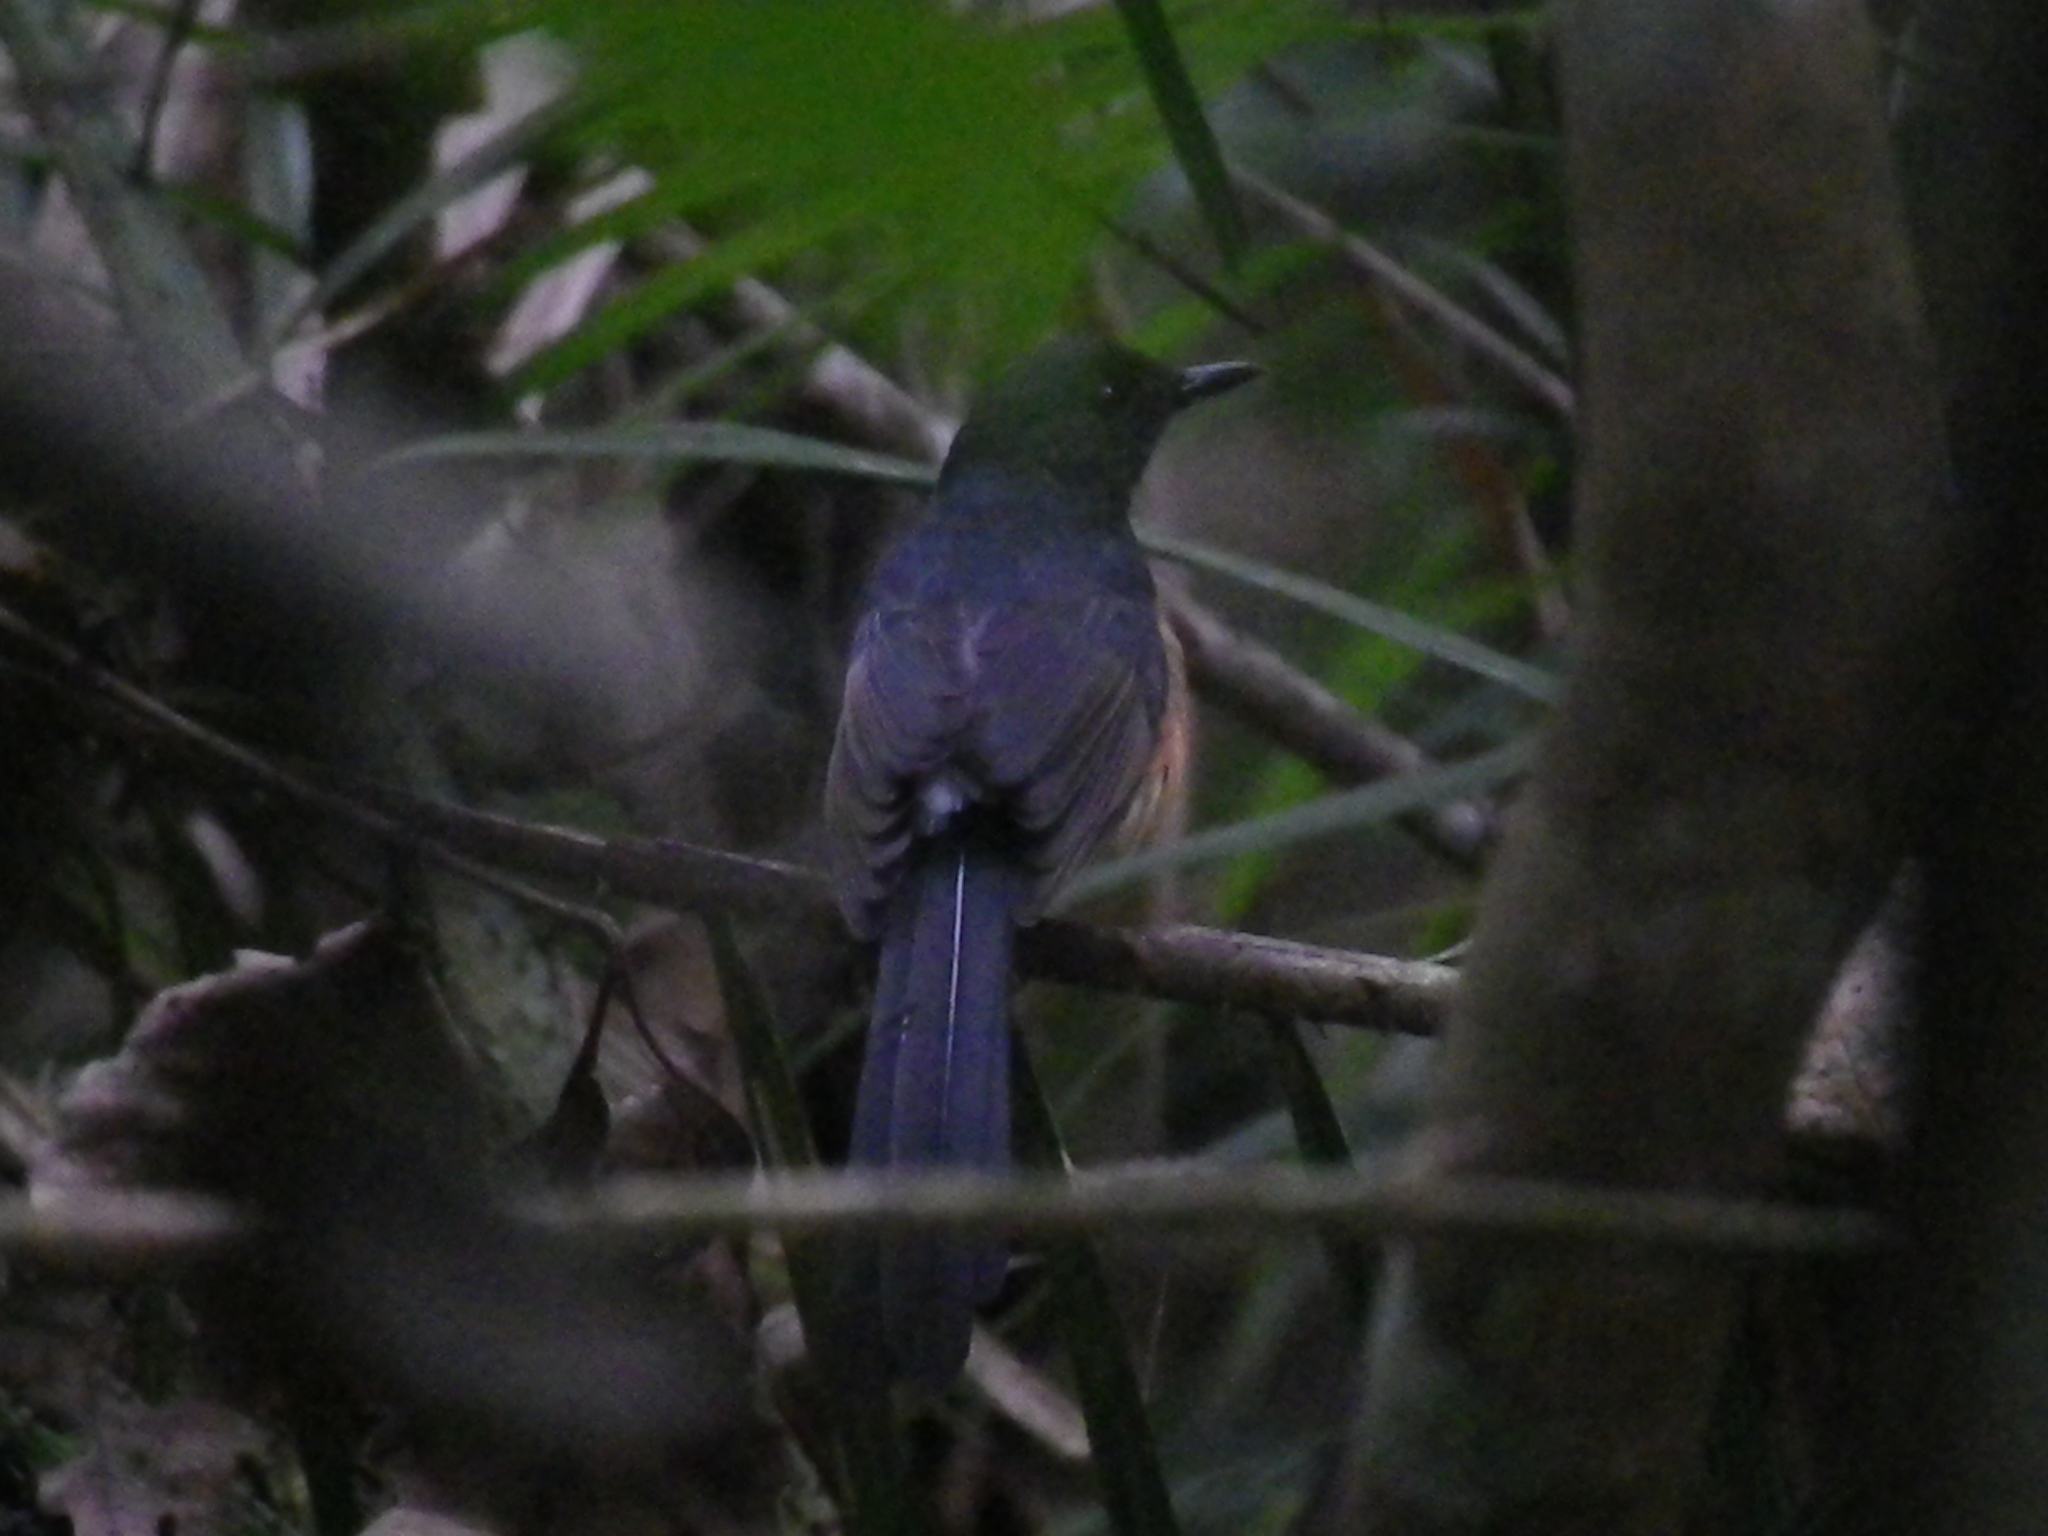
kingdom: Animalia
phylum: Chordata
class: Aves
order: Passeriformes
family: Muscicapidae
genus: Copsychus
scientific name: Copsychus malabaricus
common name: White-rumped shama
